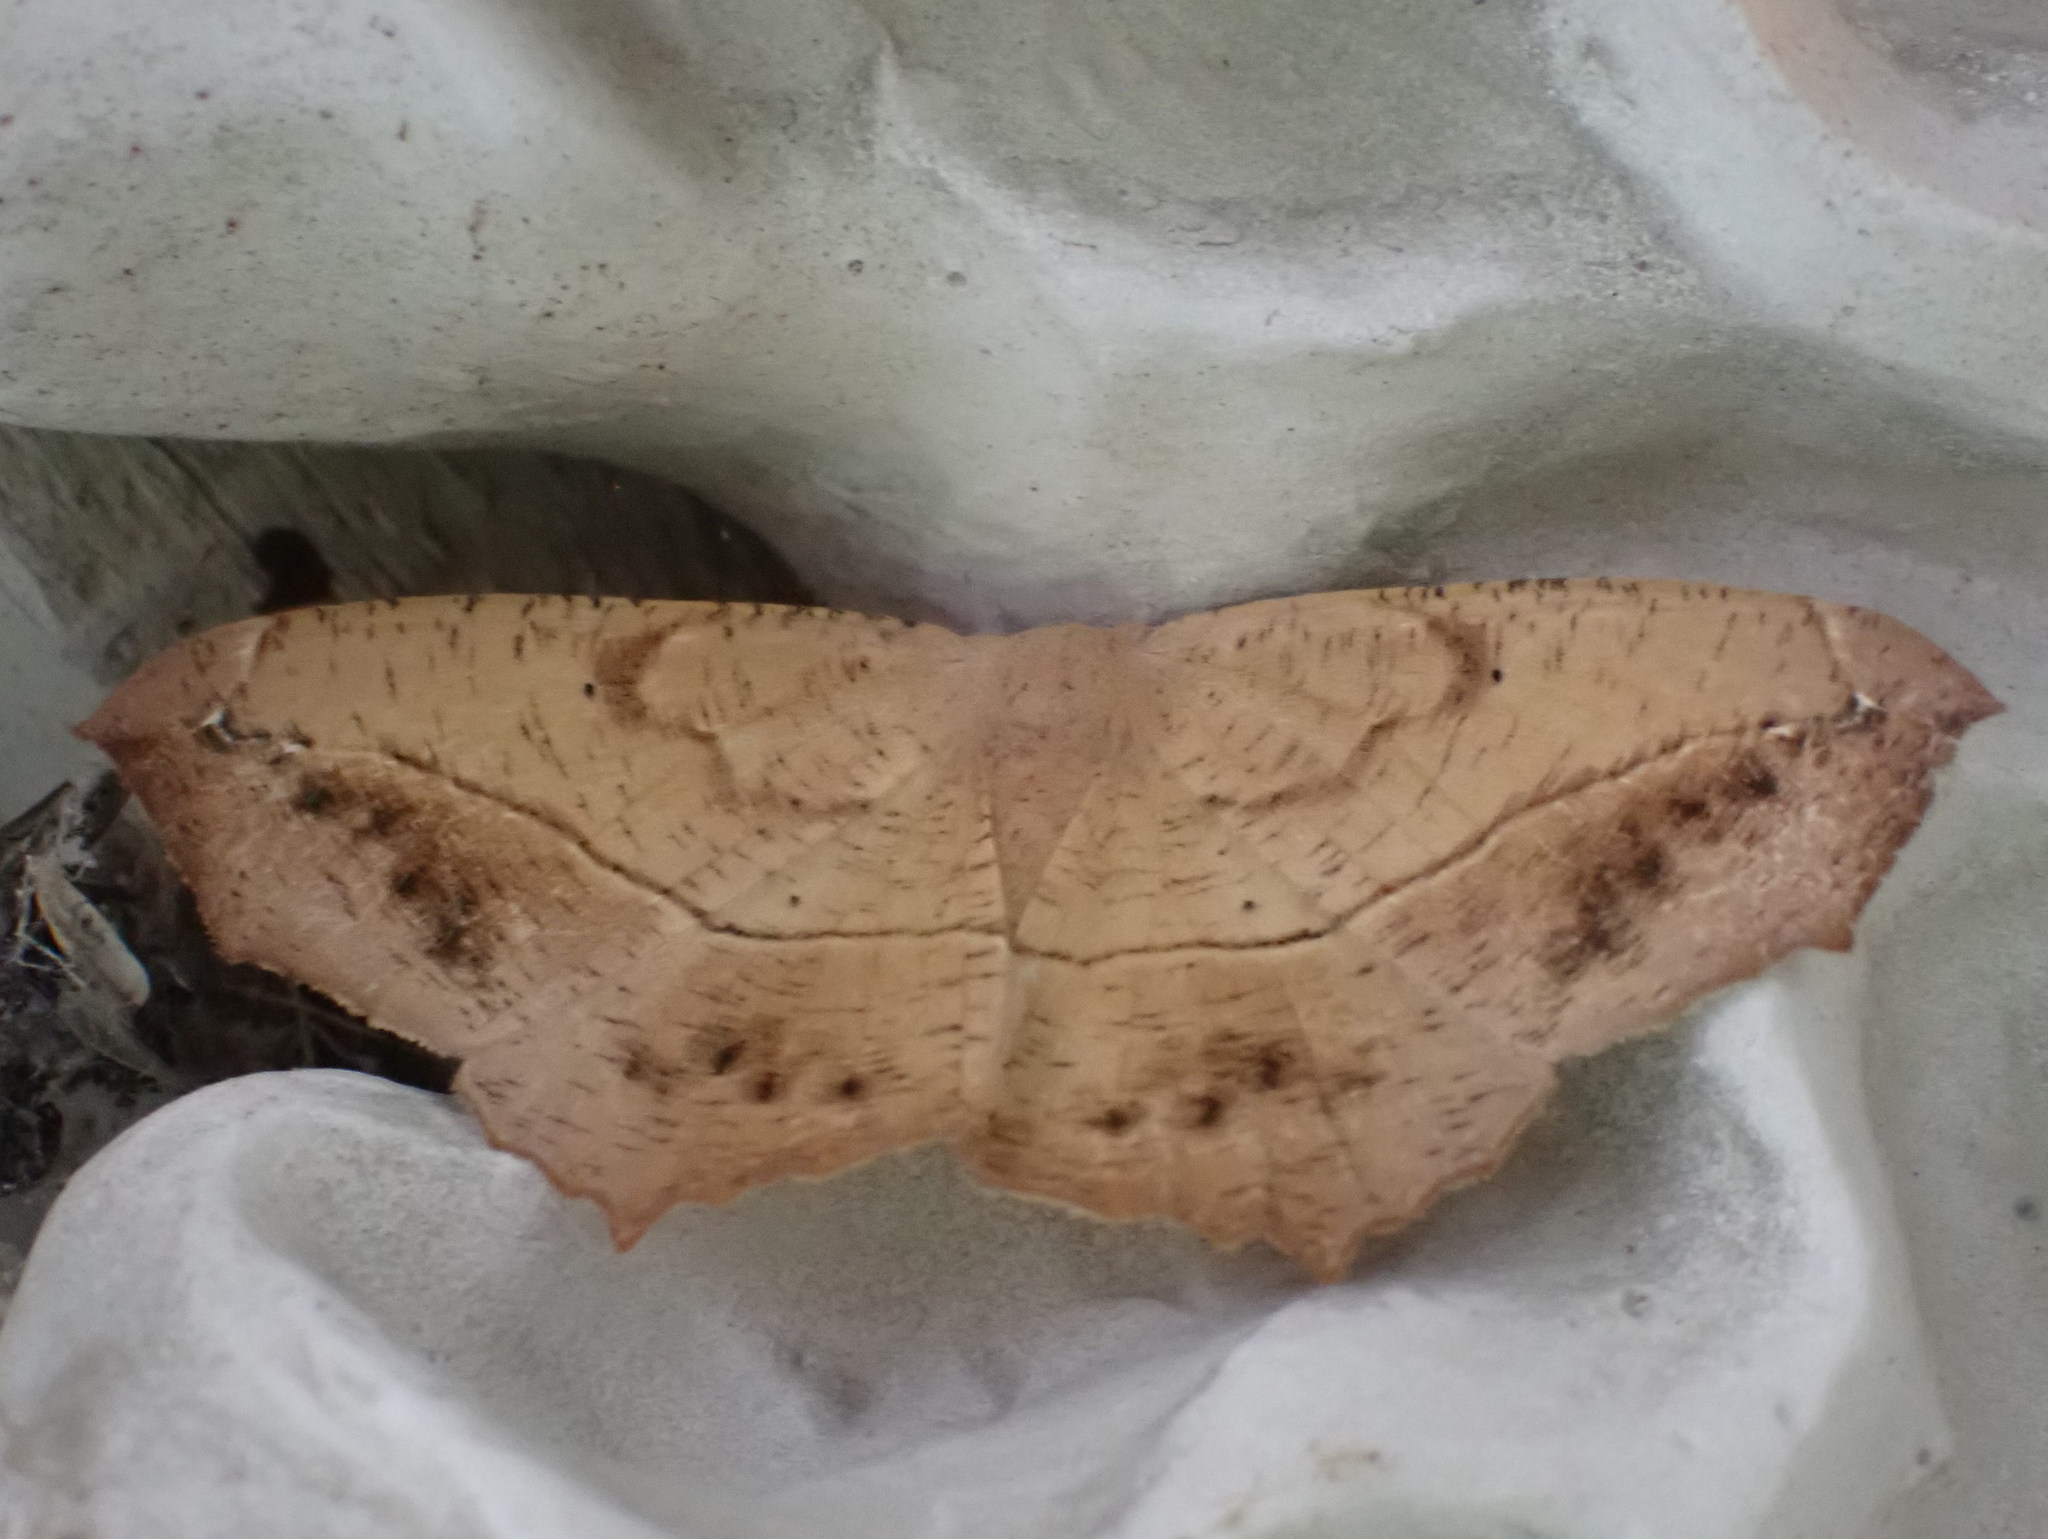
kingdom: Animalia
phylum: Arthropoda
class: Insecta
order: Lepidoptera
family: Geometridae
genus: Prochoerodes
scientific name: Prochoerodes lineola
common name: Large maple spanworm
